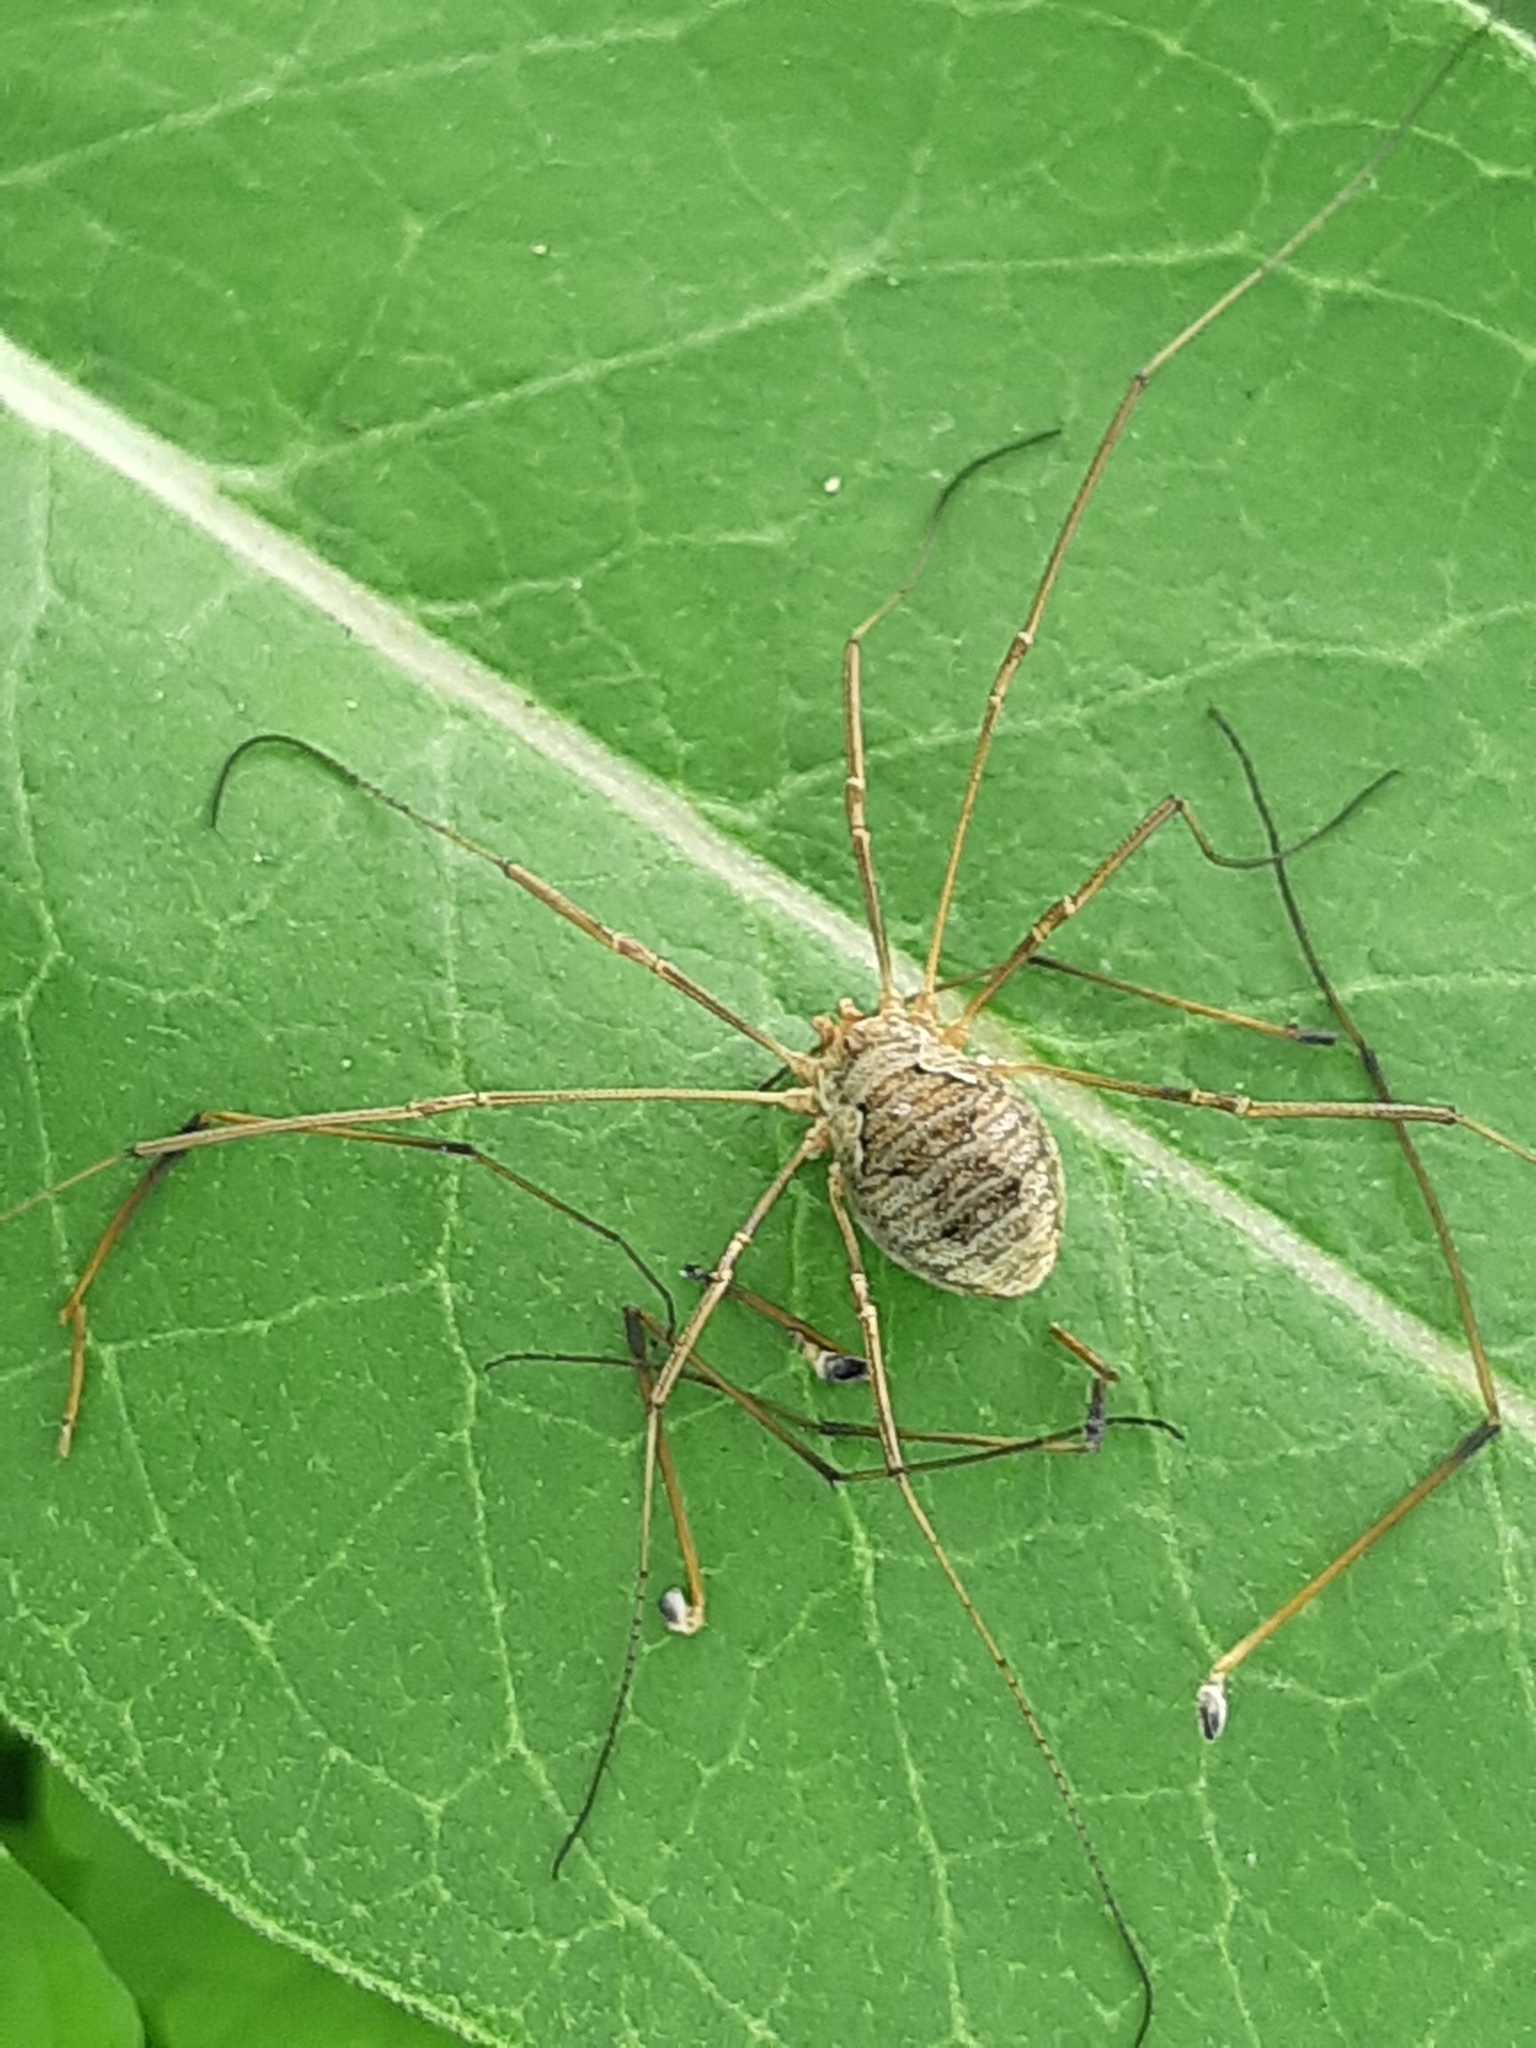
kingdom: Animalia
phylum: Arthropoda
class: Arachnida
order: Opiliones
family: Phalangiidae
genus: Phalangium
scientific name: Phalangium opilio
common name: Daddy longleg
